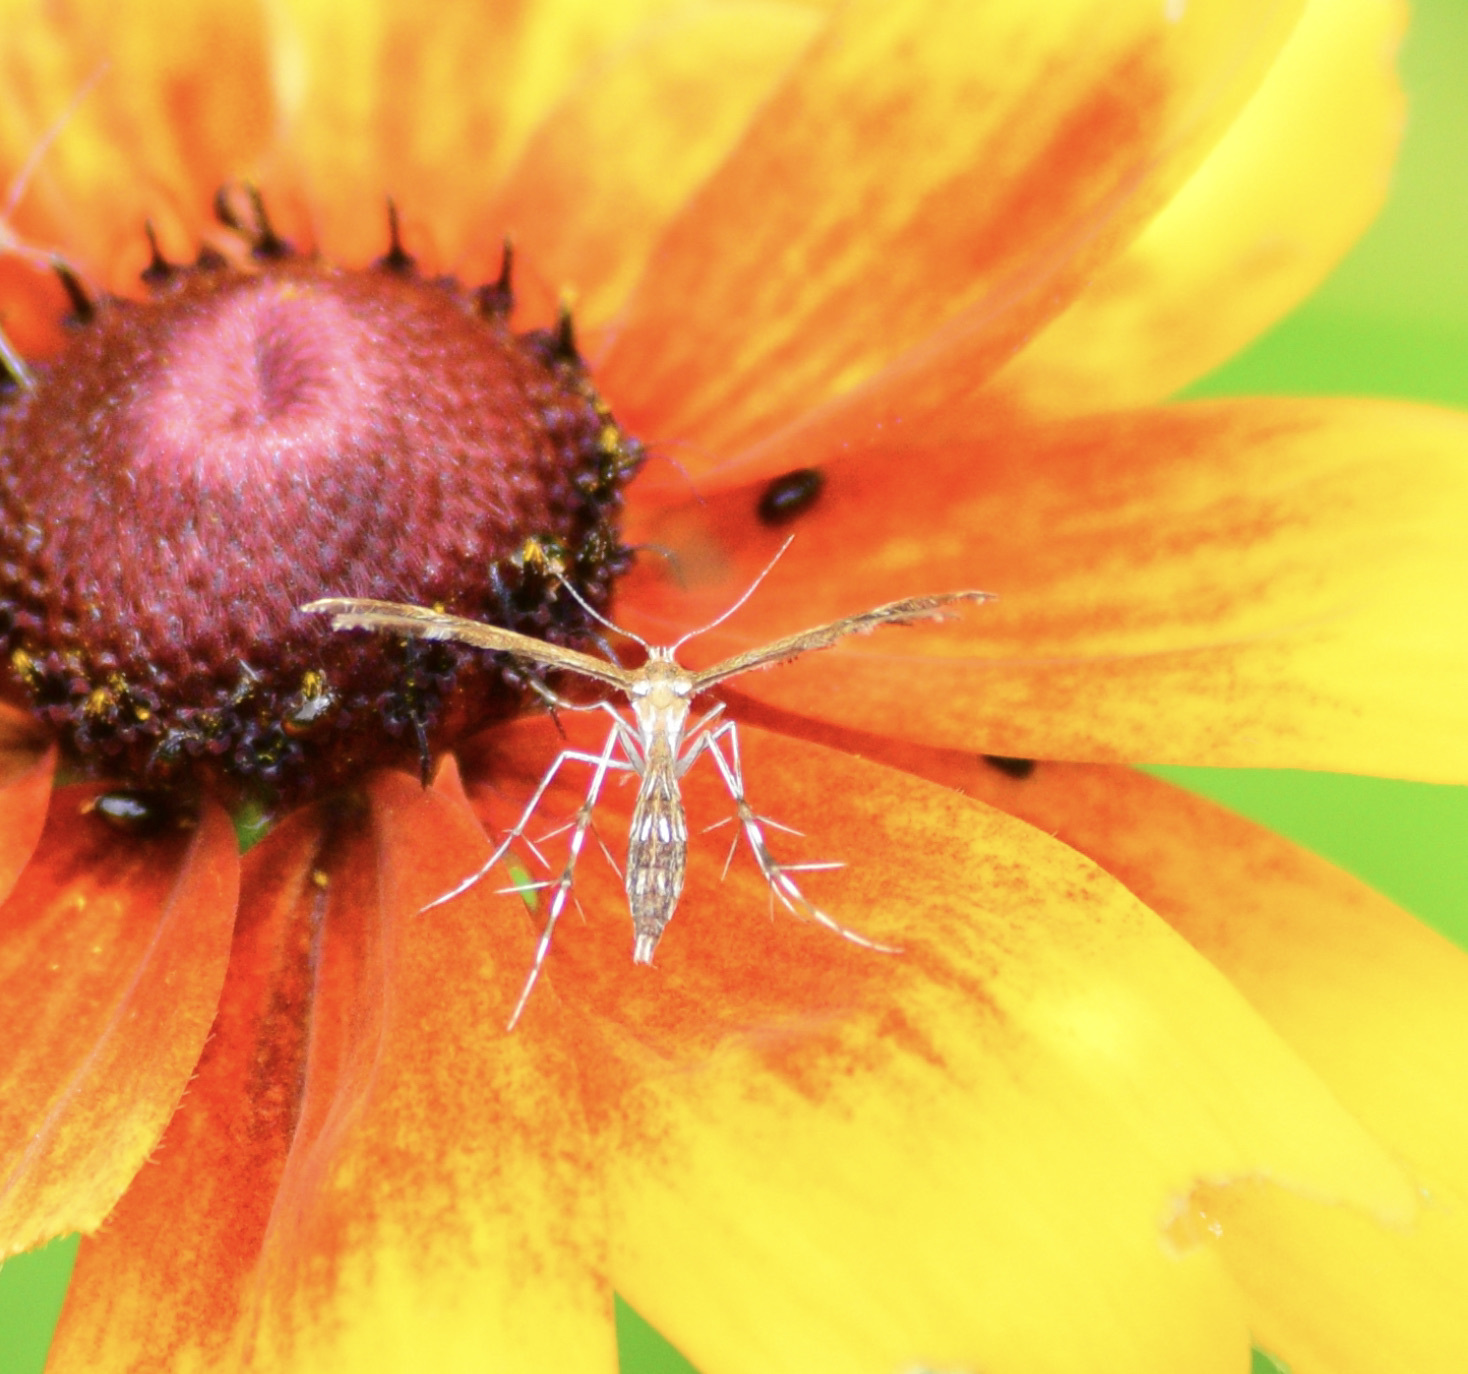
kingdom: Animalia
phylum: Arthropoda
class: Insecta
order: Lepidoptera
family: Pterophoridae
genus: Dejongia
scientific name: Dejongia lobidactylus
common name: Lobed plume moth
